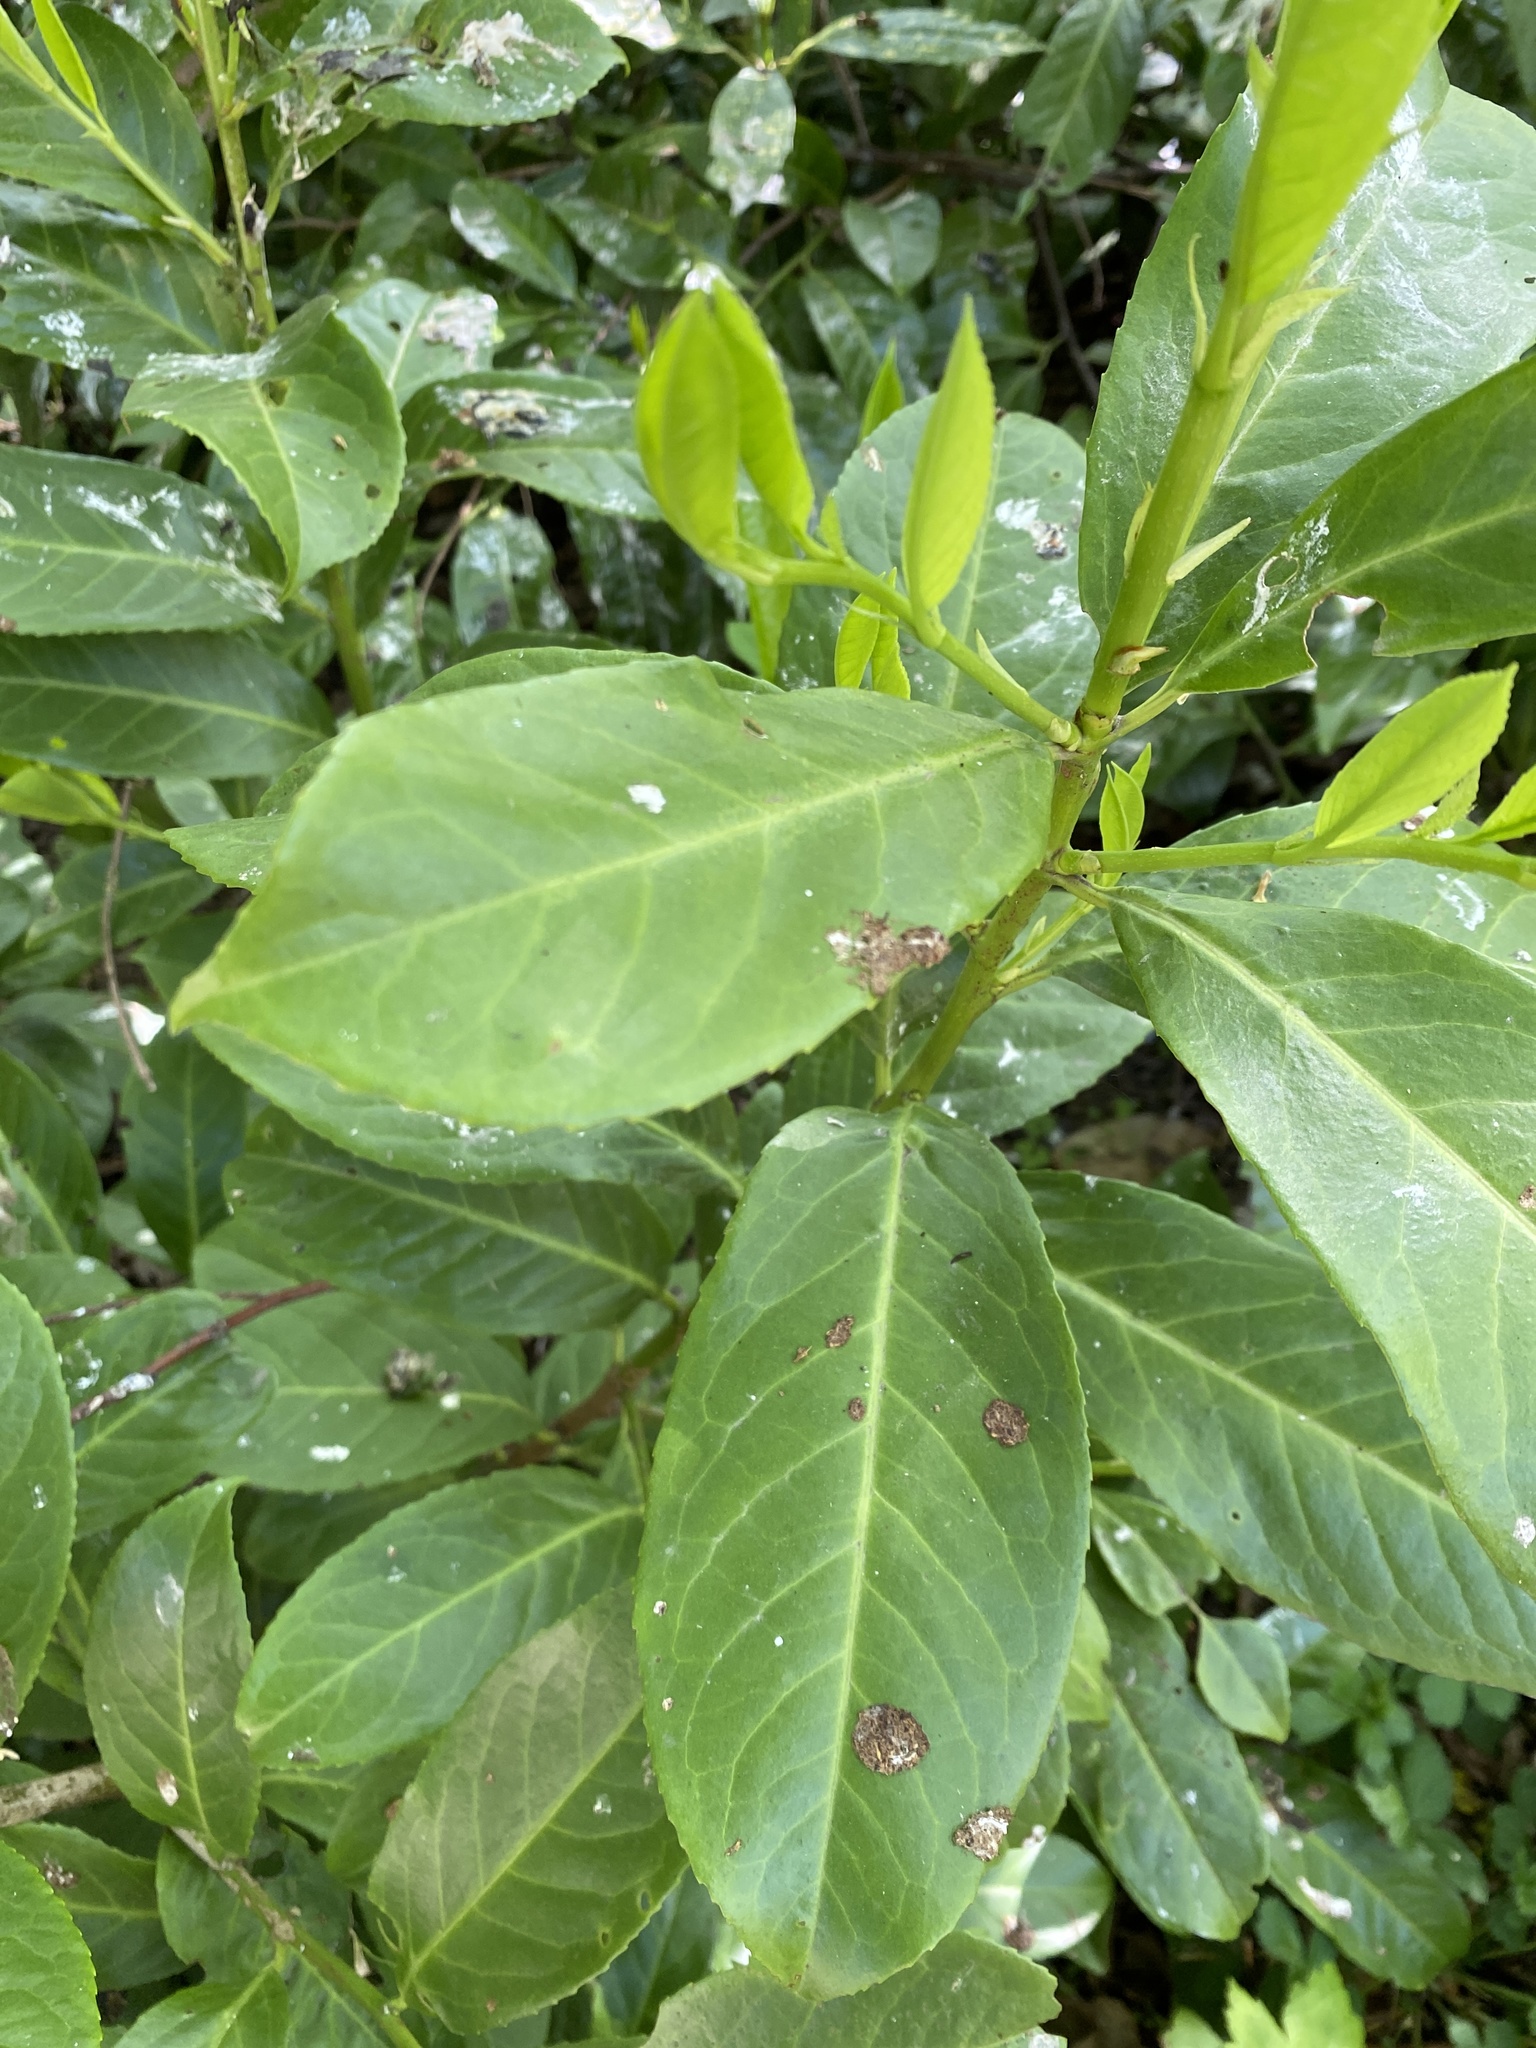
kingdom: Plantae
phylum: Tracheophyta
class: Magnoliopsida
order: Rosales
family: Rosaceae
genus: Prunus
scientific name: Prunus laurocerasus
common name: Cherry laurel
